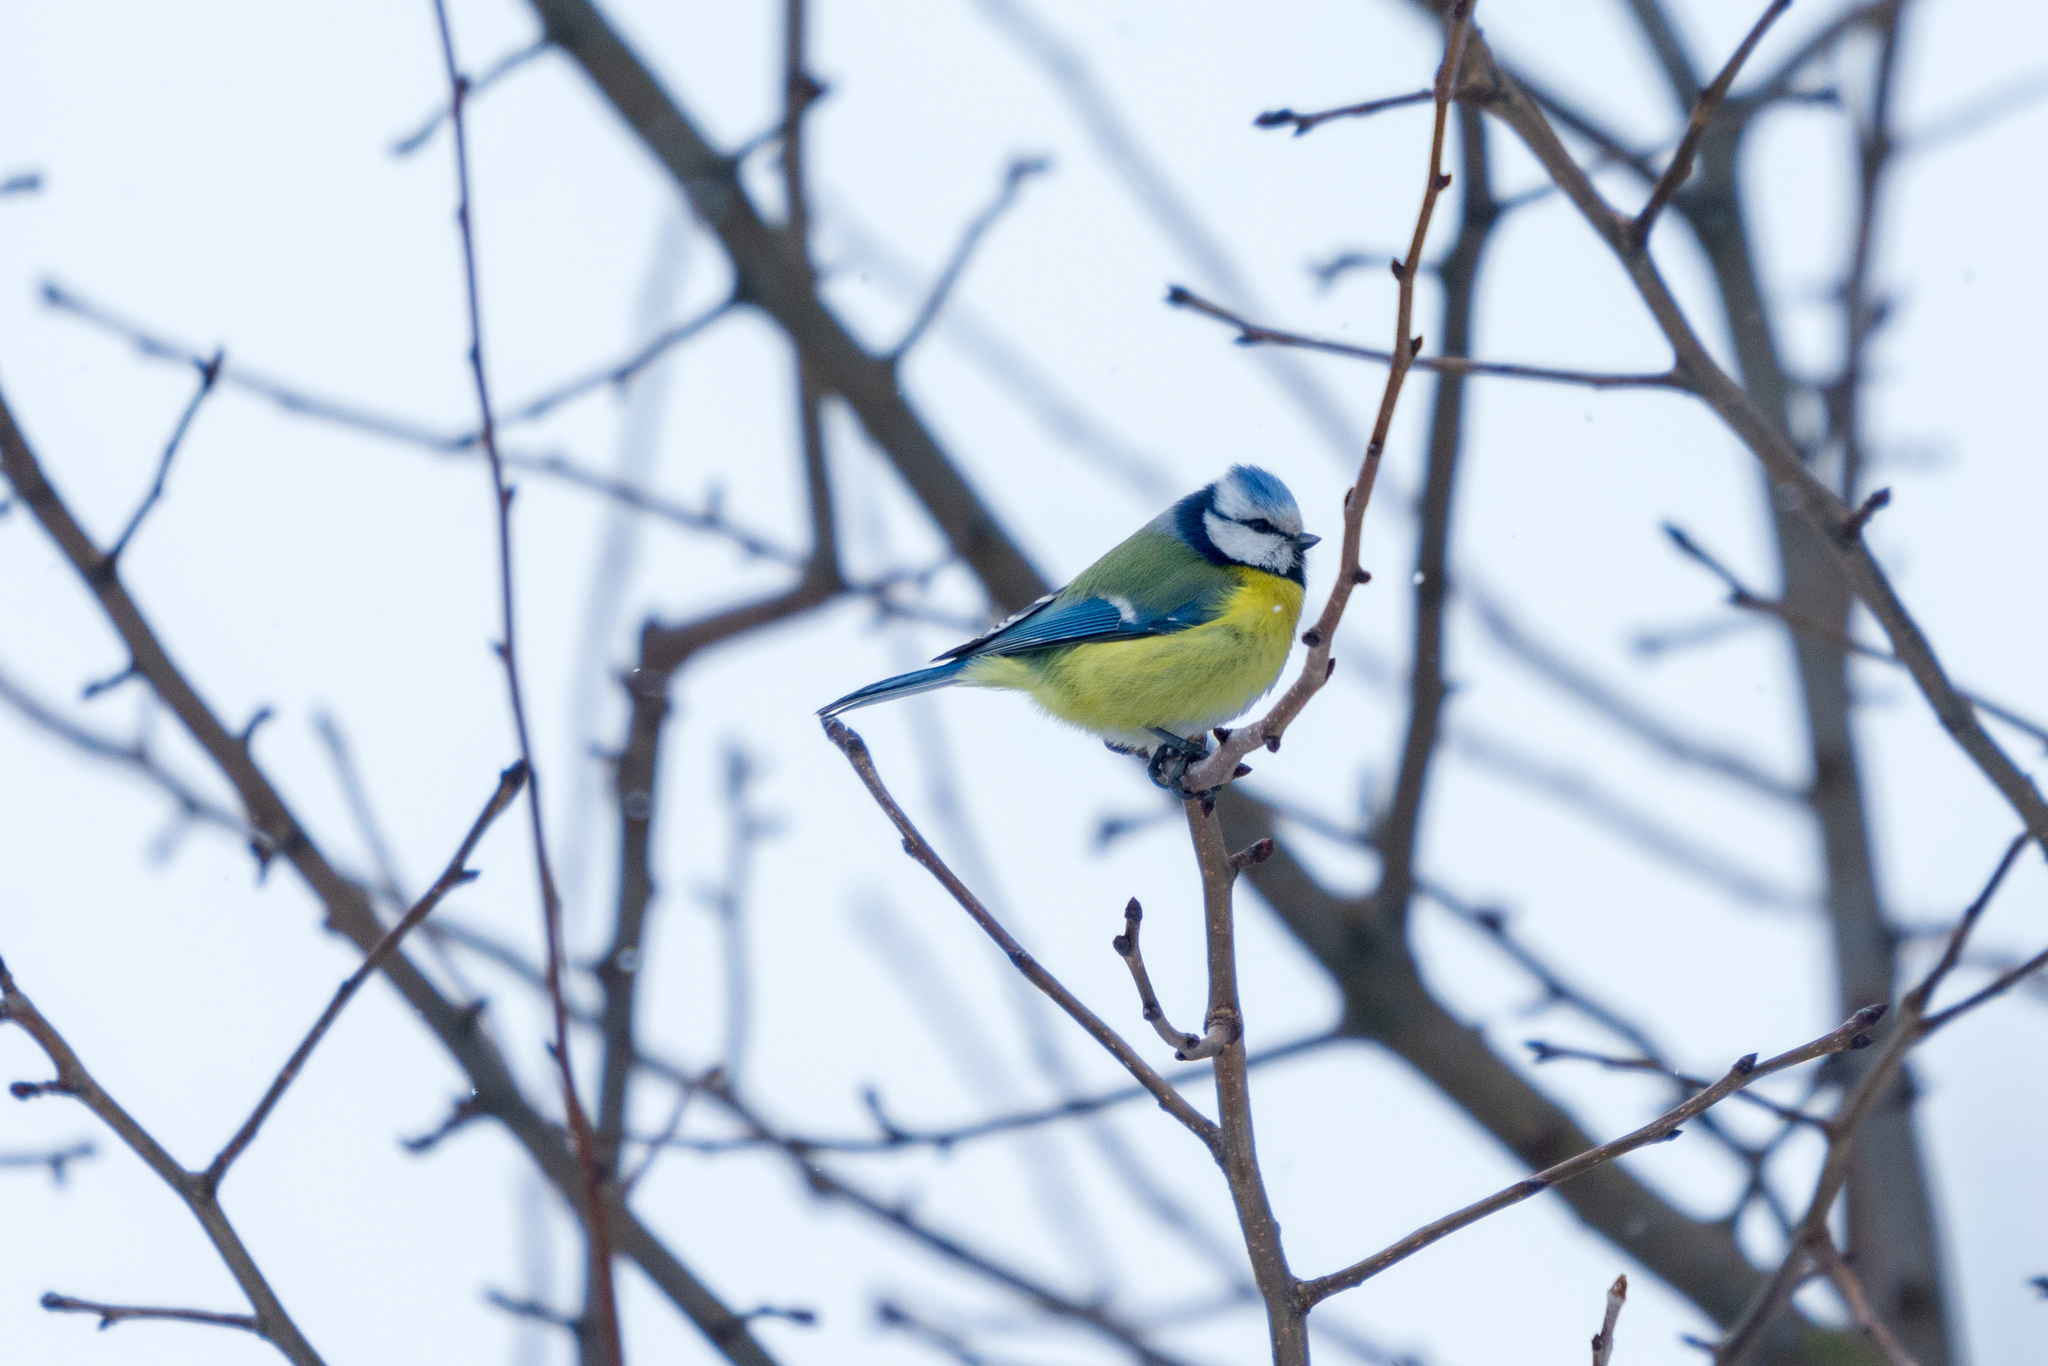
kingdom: Animalia
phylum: Chordata
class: Aves
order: Passeriformes
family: Paridae
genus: Cyanistes
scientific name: Cyanistes caeruleus
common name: Eurasian blue tit
